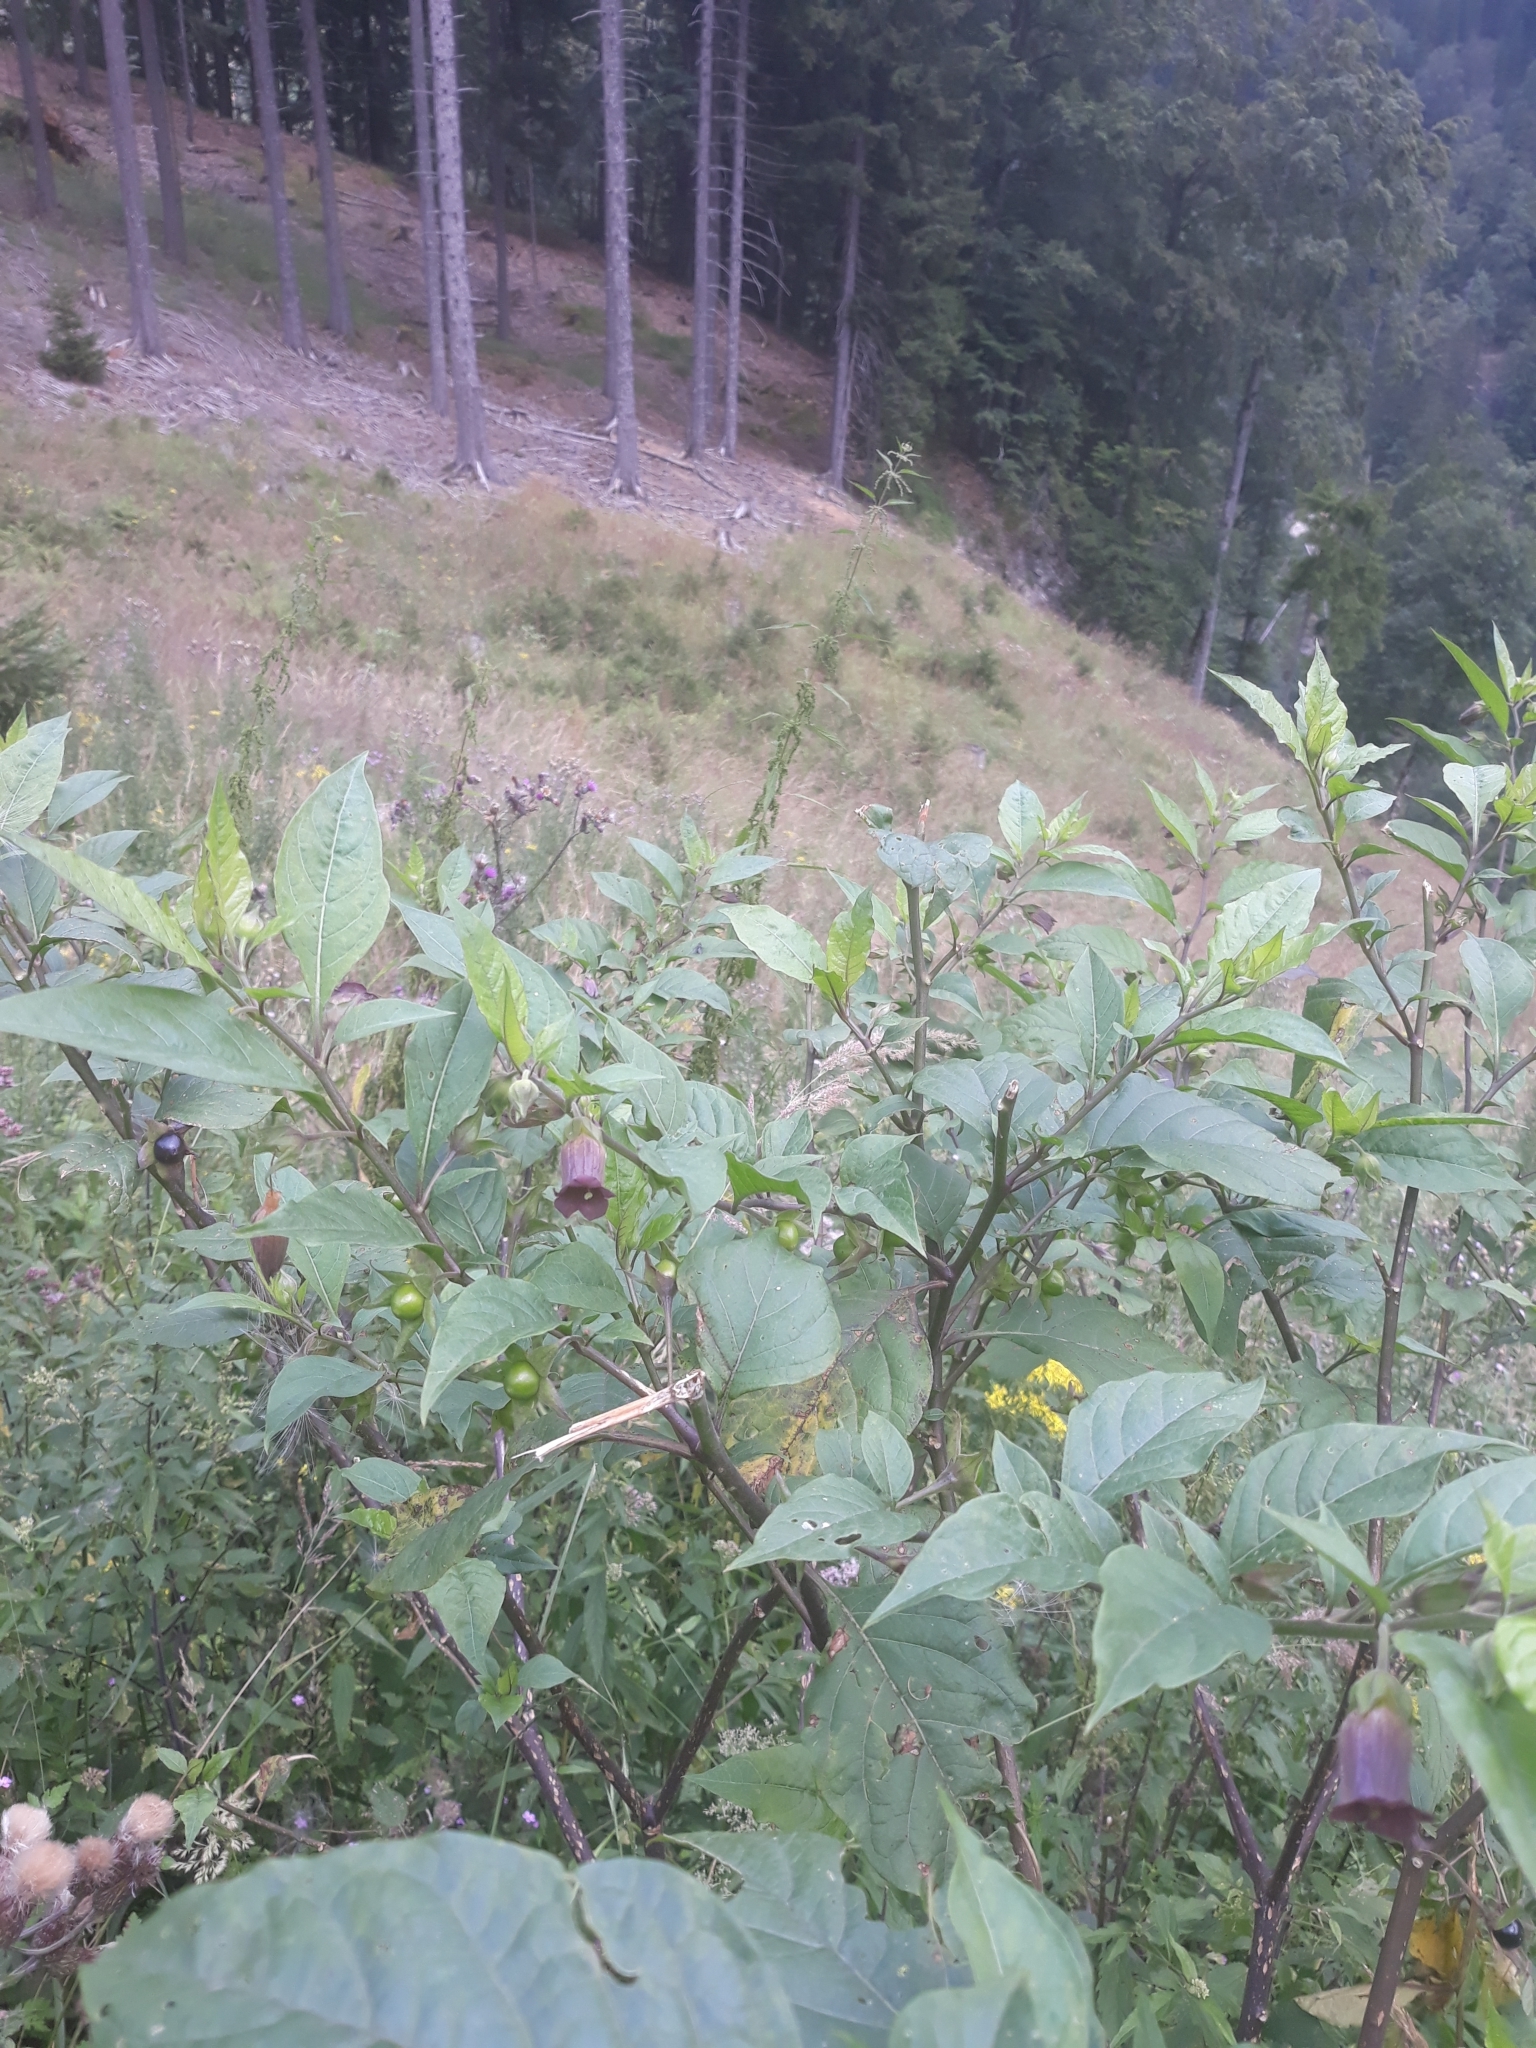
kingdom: Plantae
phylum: Tracheophyta
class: Magnoliopsida
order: Solanales
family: Solanaceae
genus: Atropa
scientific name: Atropa belladonna
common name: Deadly nightshade
